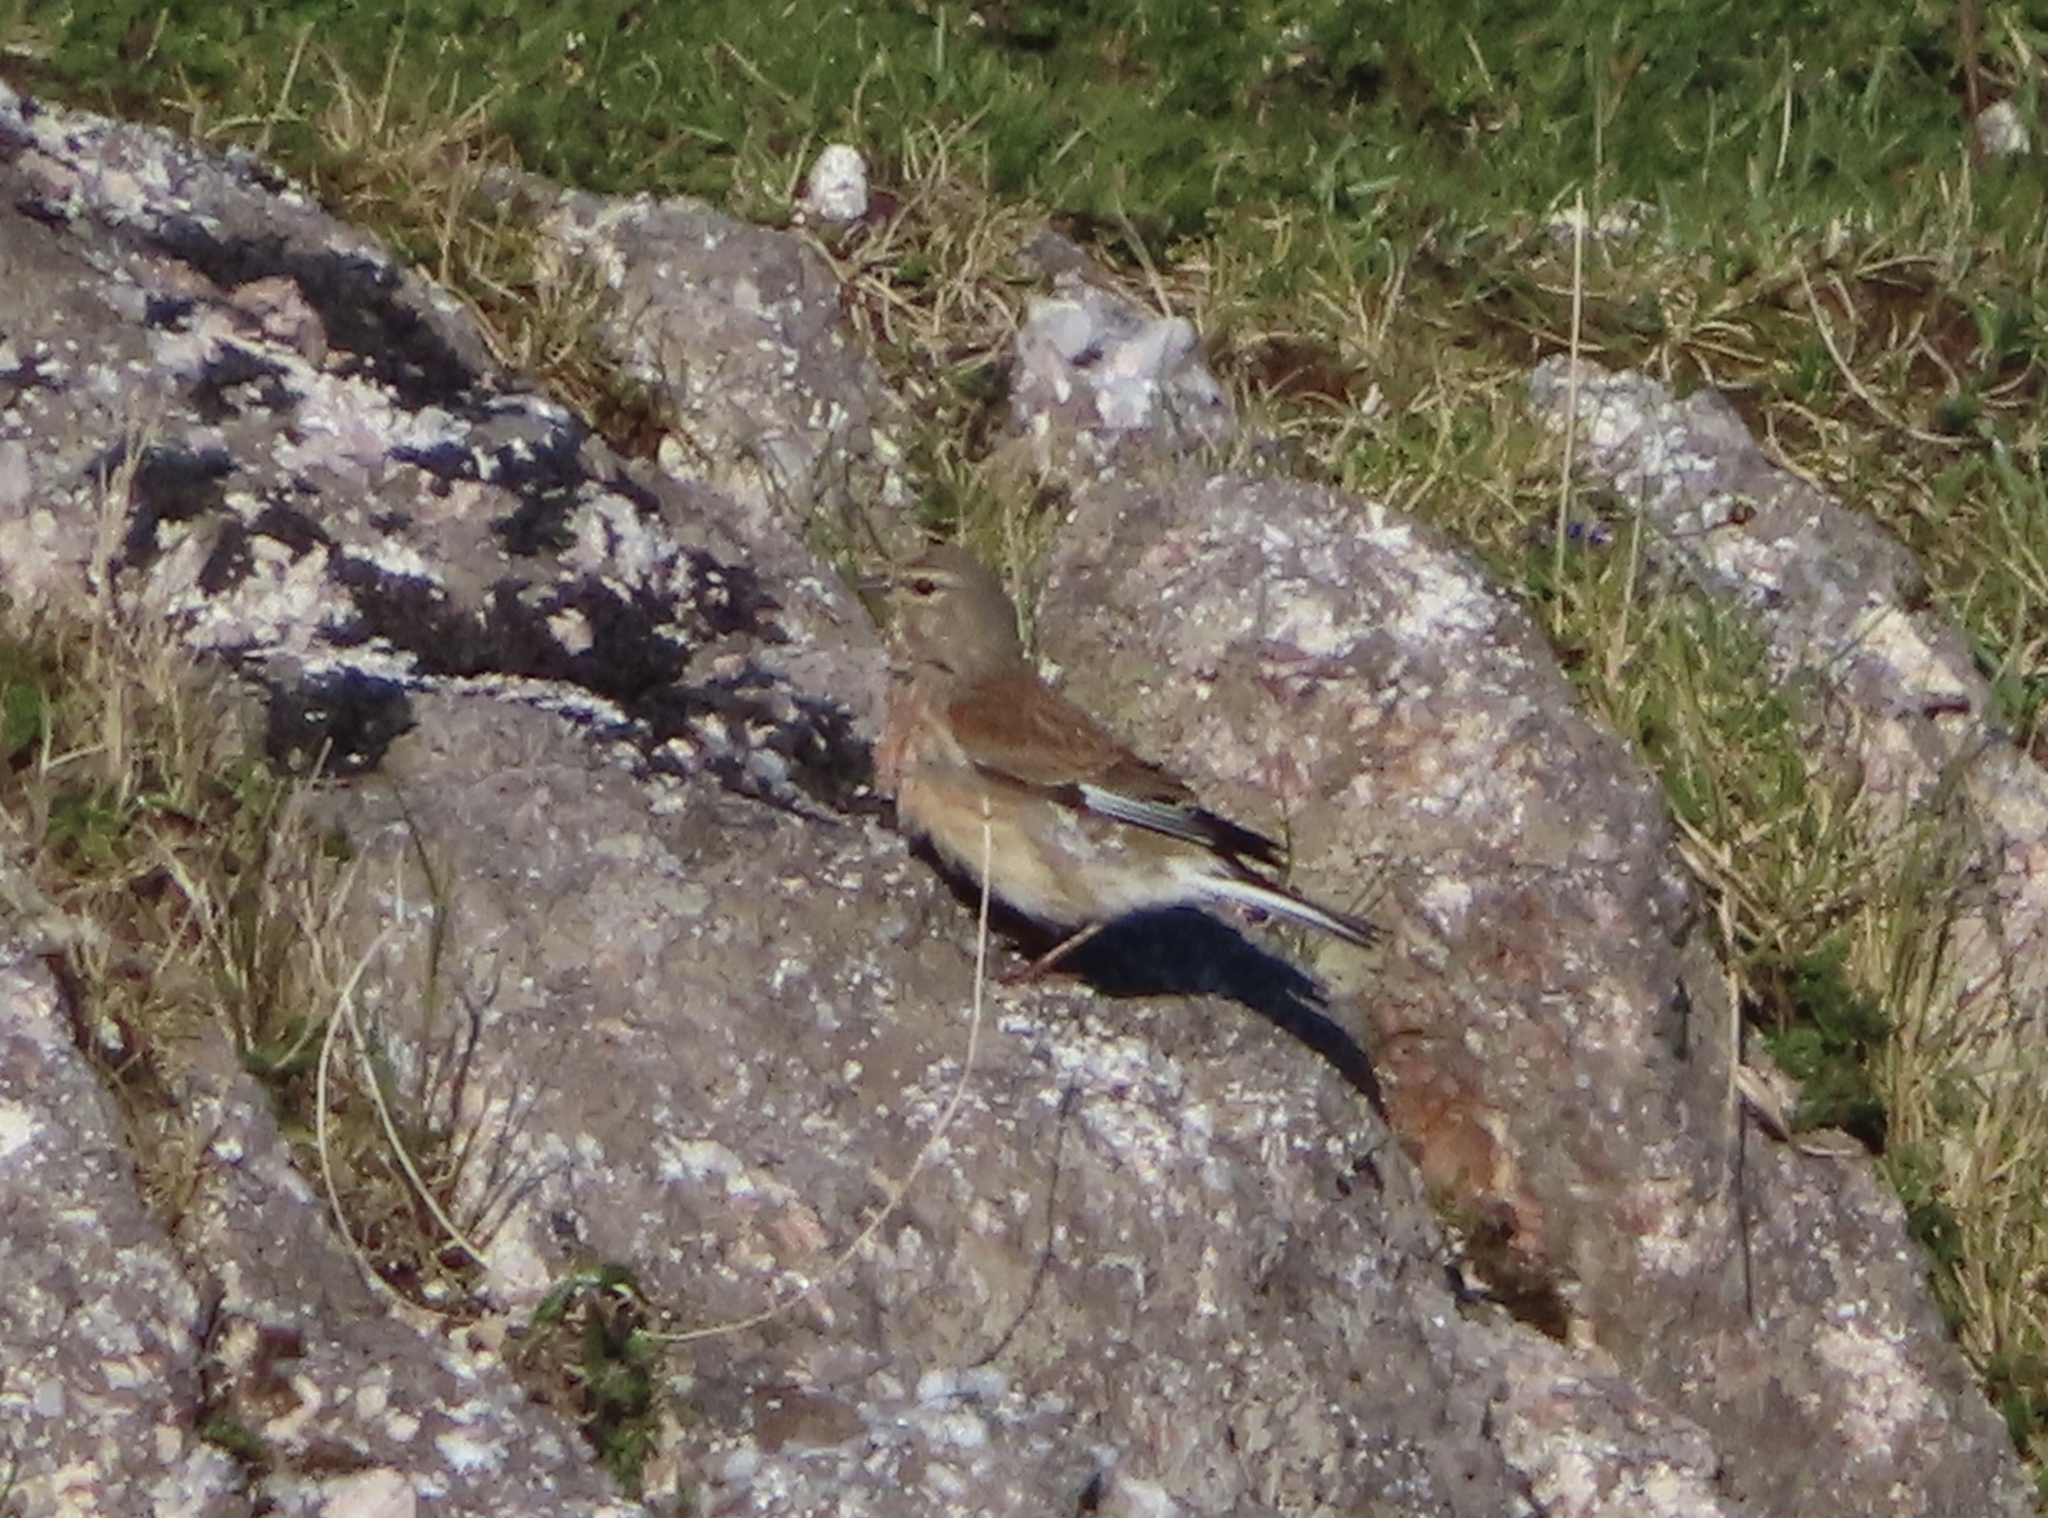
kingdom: Animalia
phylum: Chordata
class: Aves
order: Passeriformes
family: Fringillidae
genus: Linaria
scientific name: Linaria cannabina
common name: Common linnet
